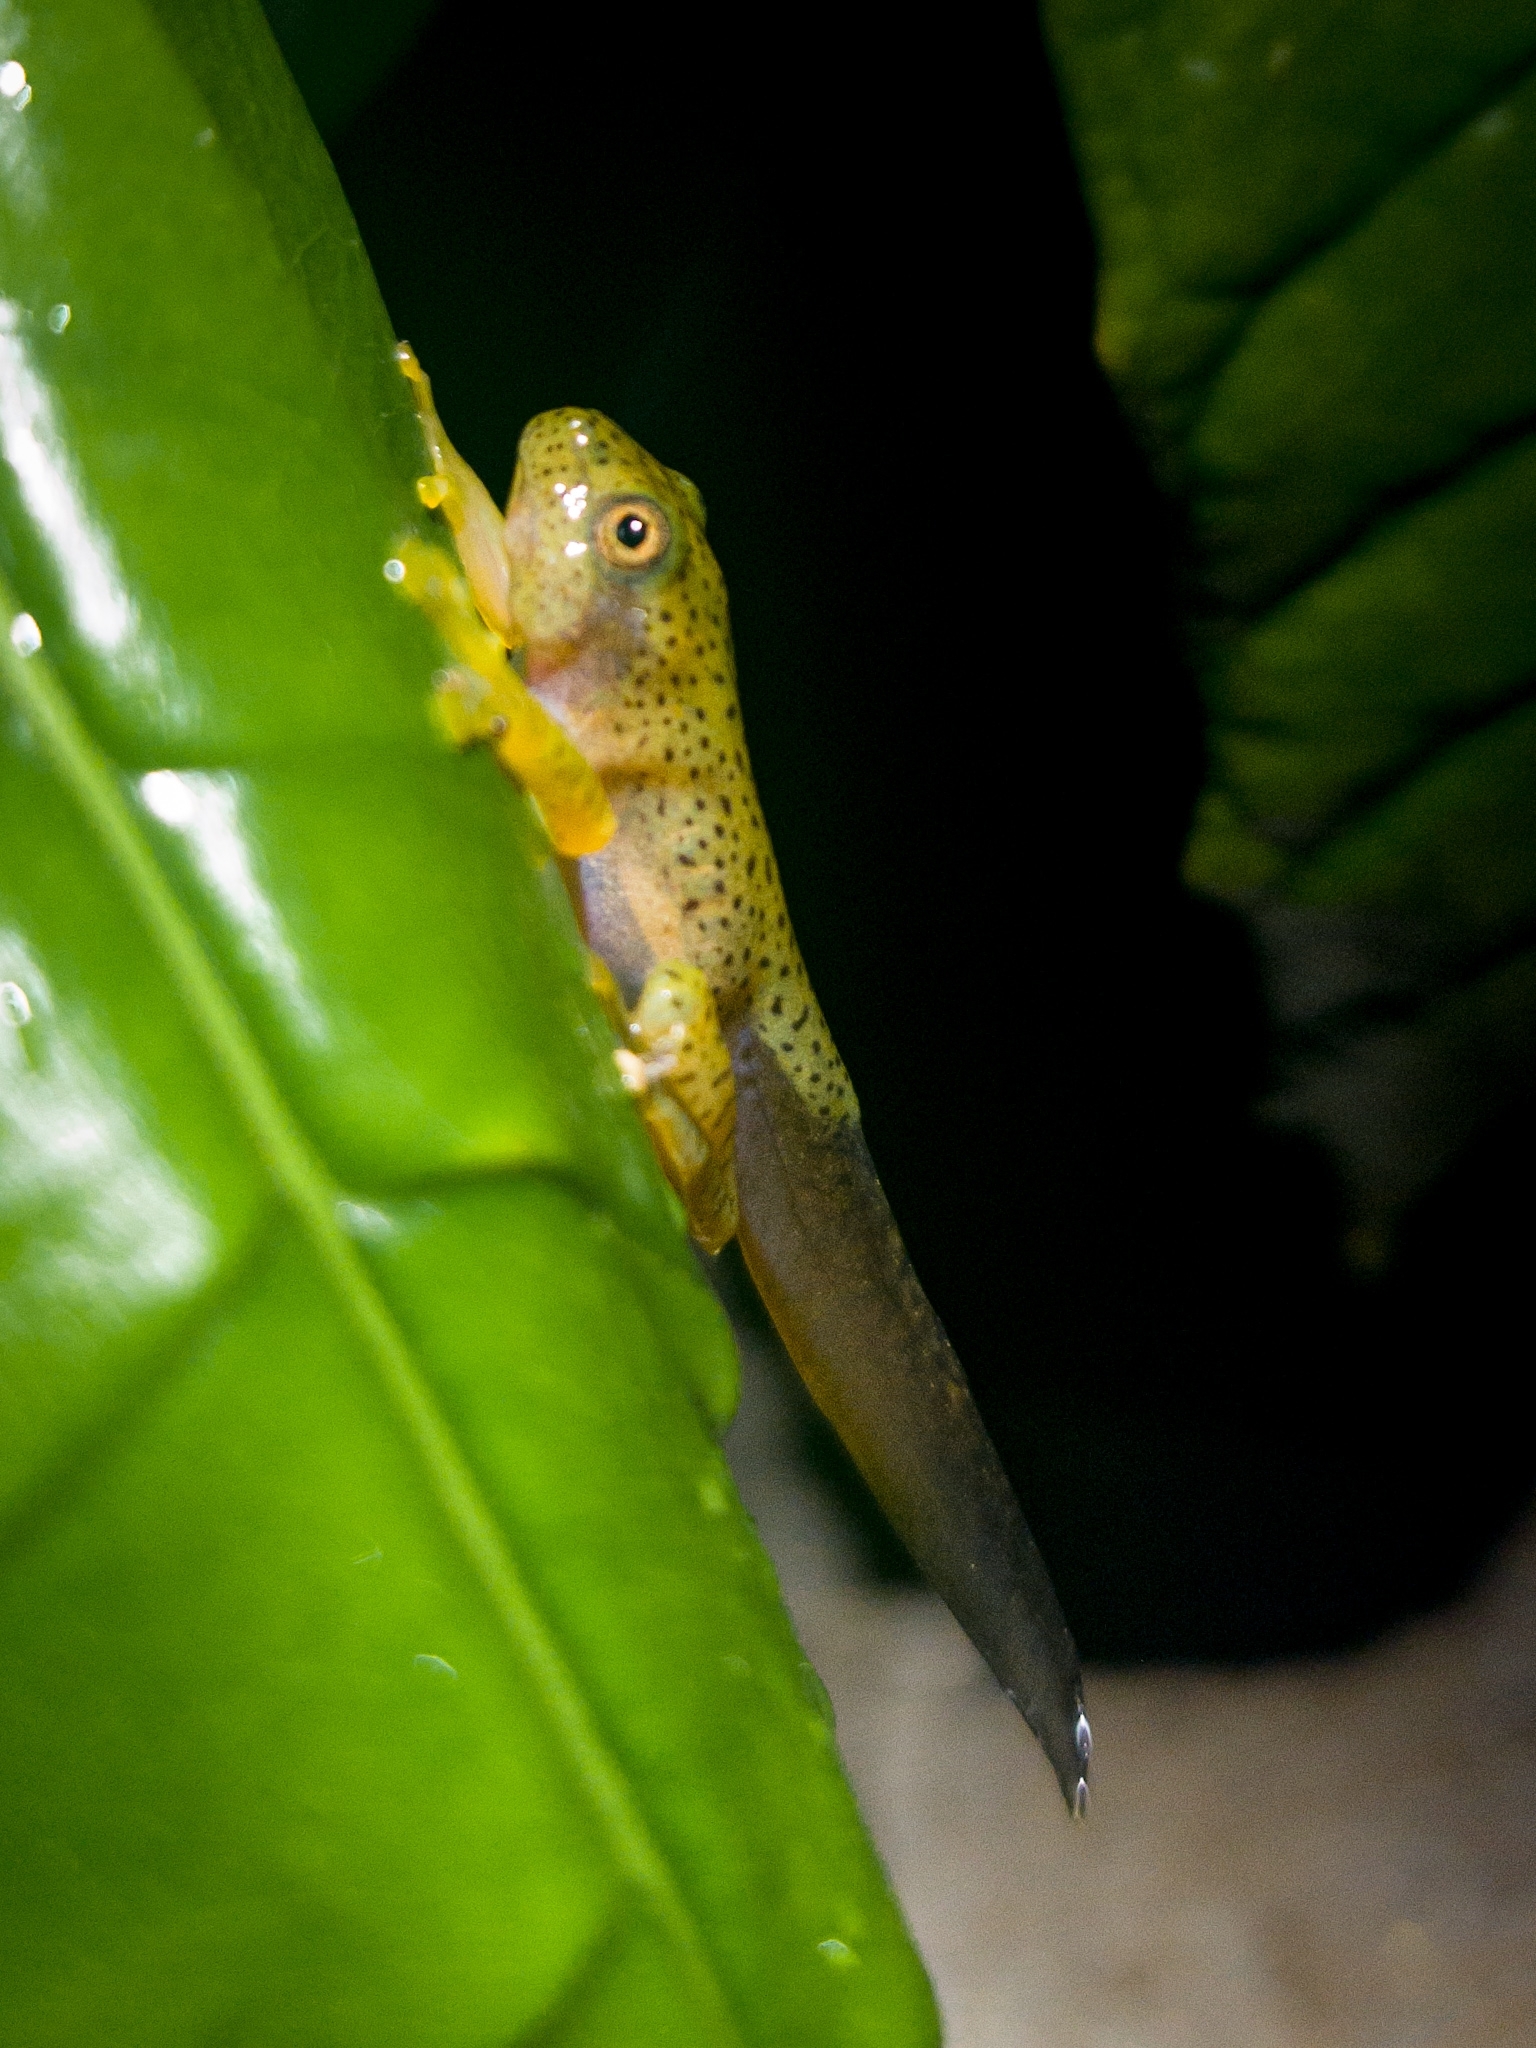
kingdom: Animalia
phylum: Chordata
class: Amphibia
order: Anura
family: Rhacophoridae
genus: Rhacophorus
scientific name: Rhacophorus malabaricus
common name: Malabar gliding frog
